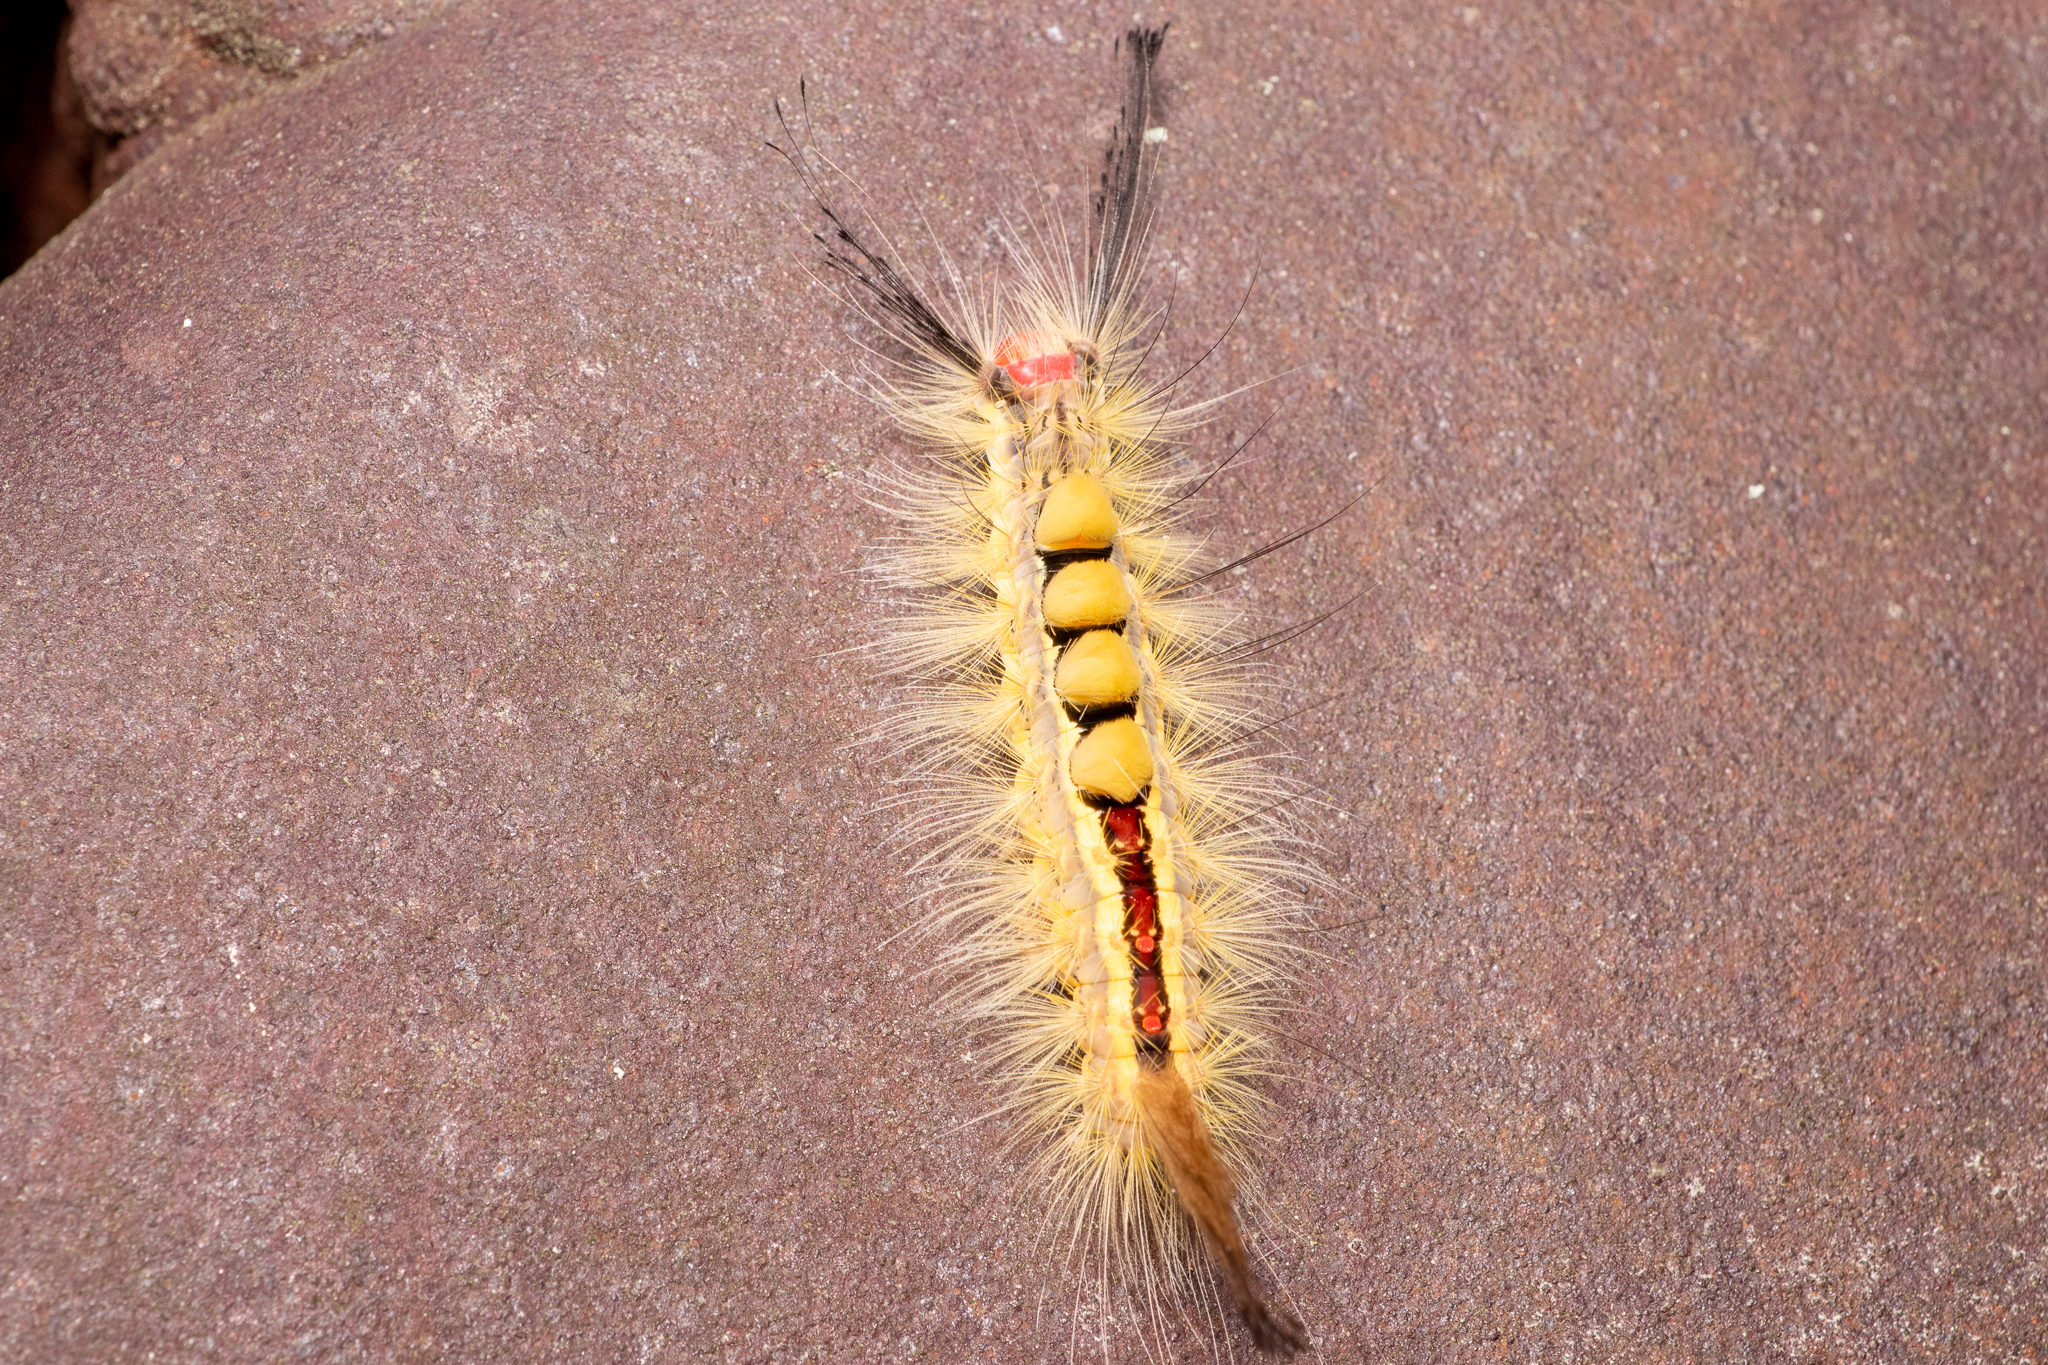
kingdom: Animalia
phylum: Arthropoda
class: Insecta
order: Lepidoptera
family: Erebidae
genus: Orgyia
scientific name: Orgyia leucostigma
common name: White-marked tussock moth
